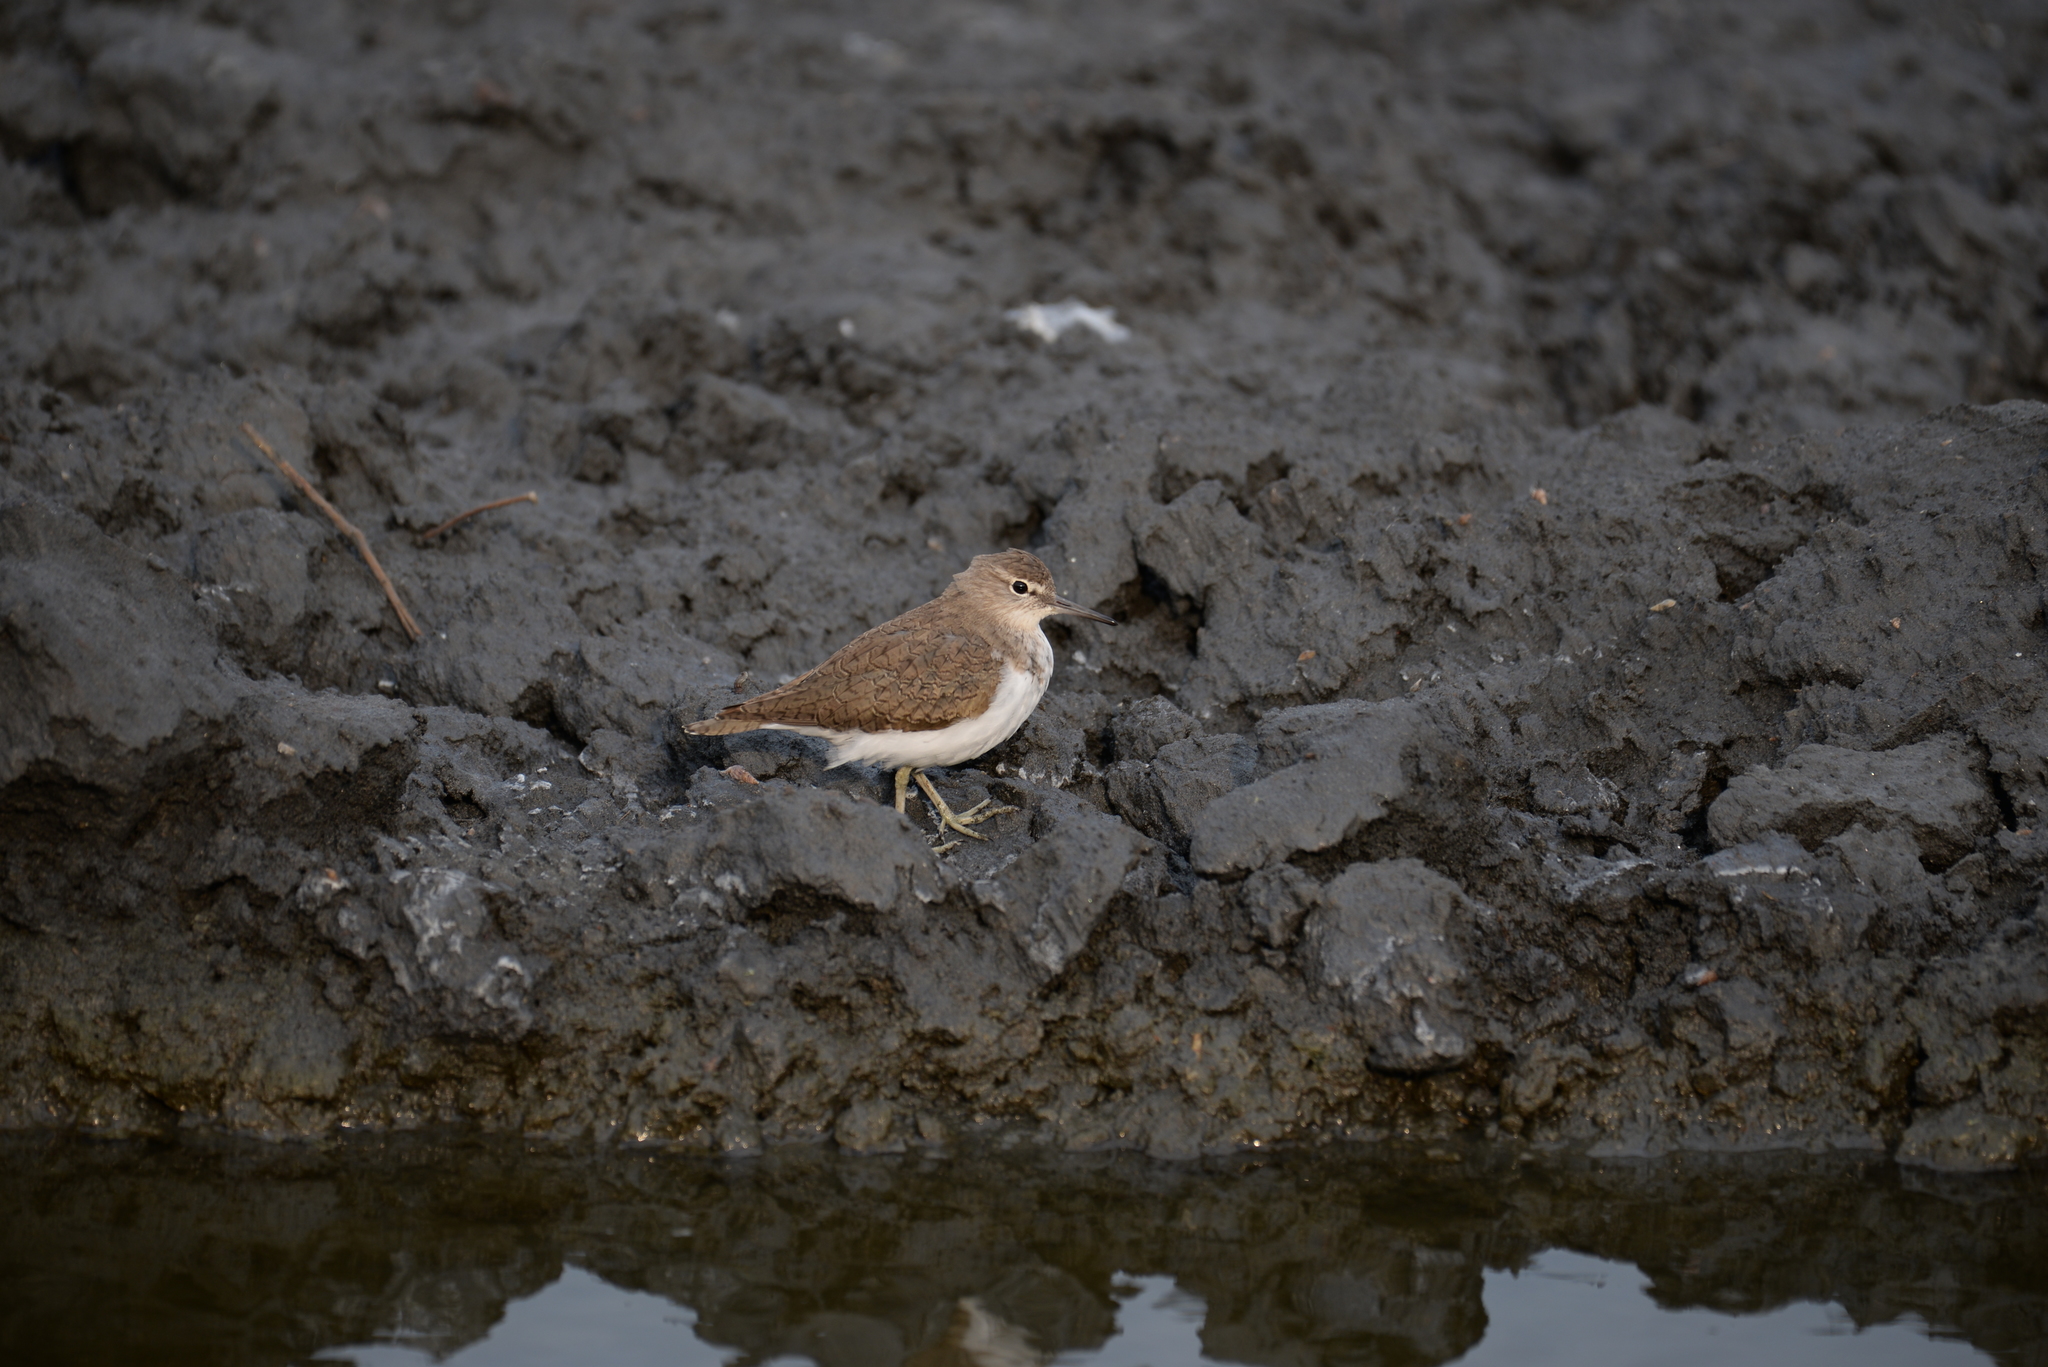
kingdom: Animalia
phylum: Chordata
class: Aves
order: Charadriiformes
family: Scolopacidae
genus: Actitis
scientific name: Actitis hypoleucos
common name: Common sandpiper
